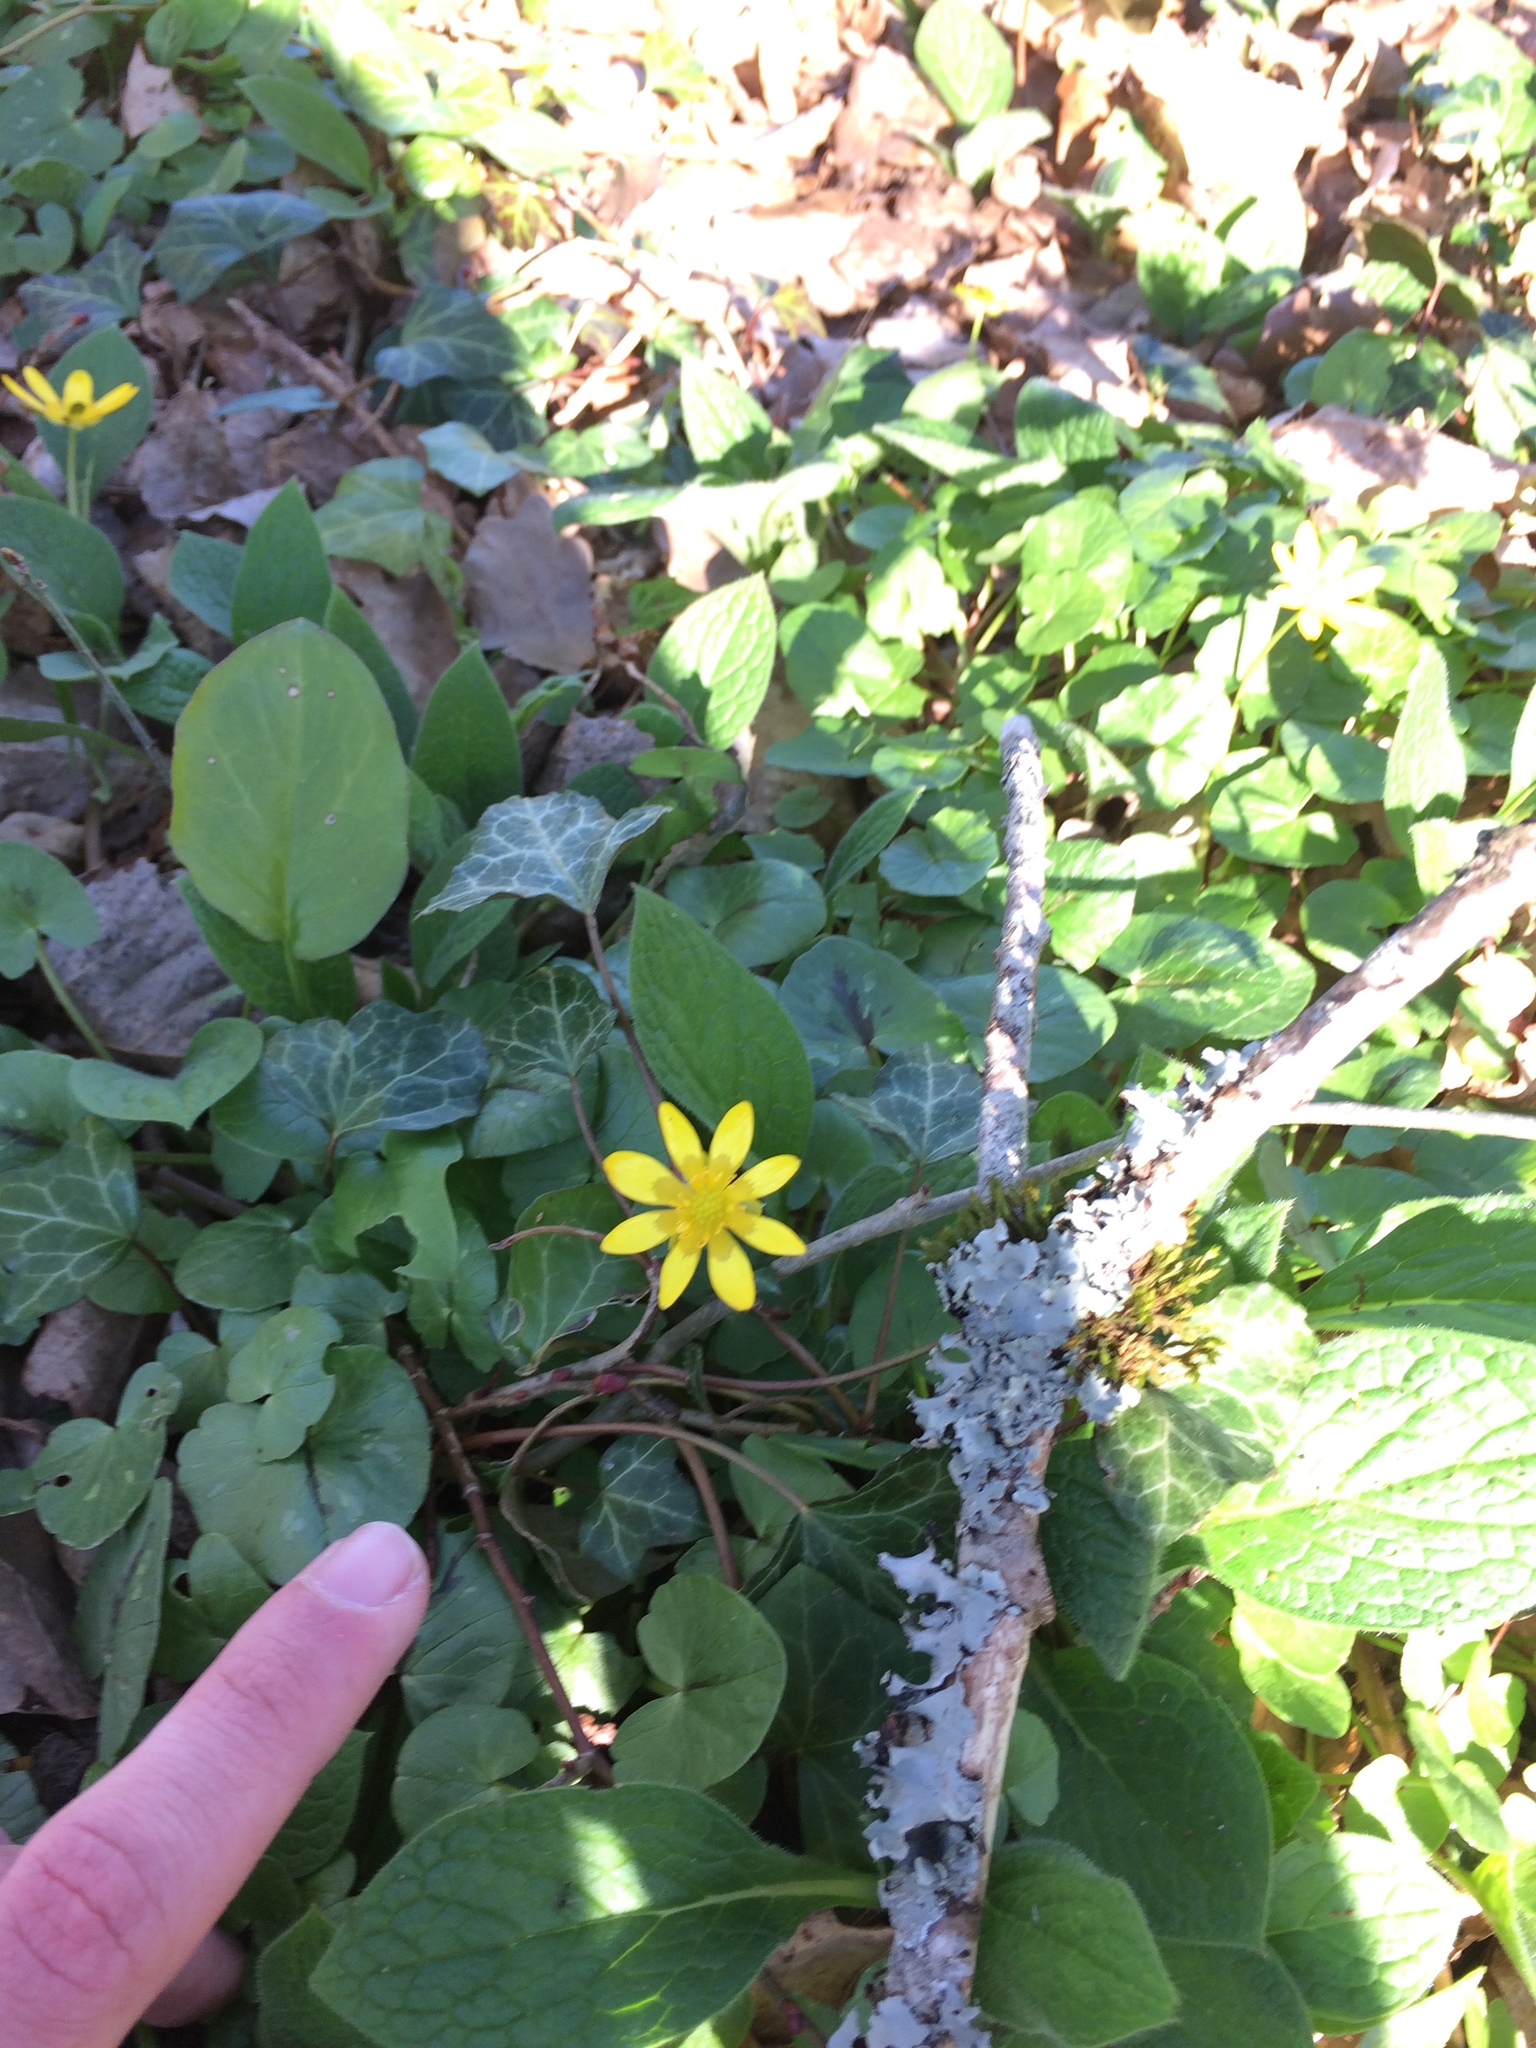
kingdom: Plantae
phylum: Tracheophyta
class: Magnoliopsida
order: Ranunculales
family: Ranunculaceae
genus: Ficaria
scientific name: Ficaria verna
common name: Lesser celandine
